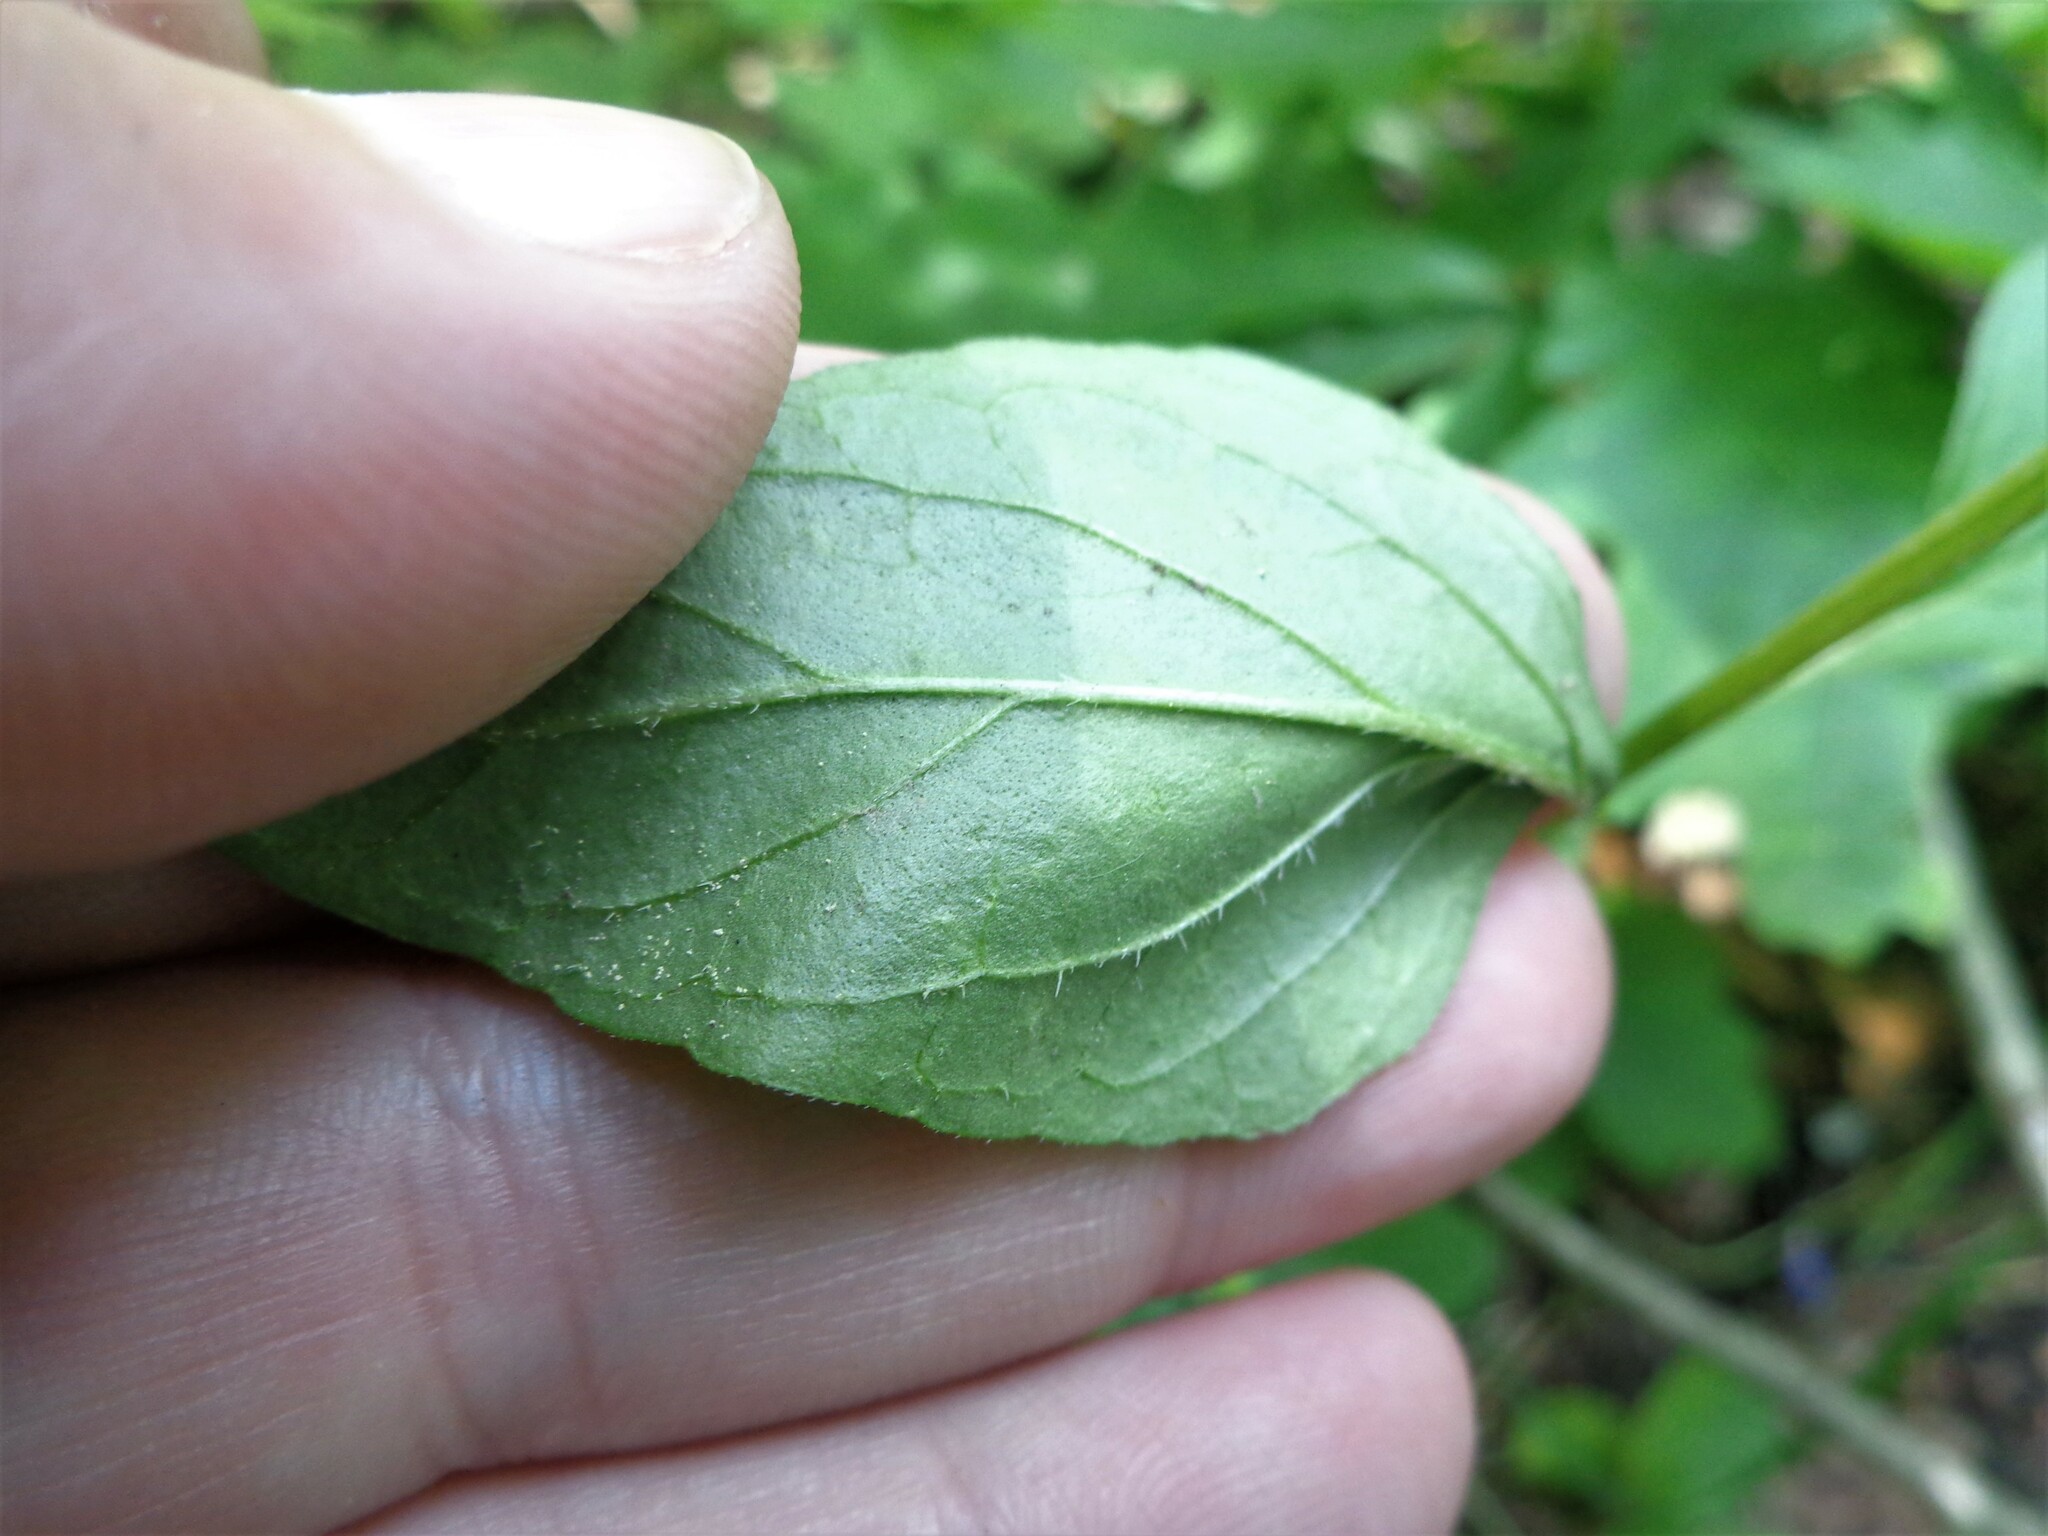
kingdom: Plantae
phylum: Tracheophyta
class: Magnoliopsida
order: Lamiales
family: Lamiaceae
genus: Prunella
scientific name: Prunella vulgaris
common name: Heal-all
